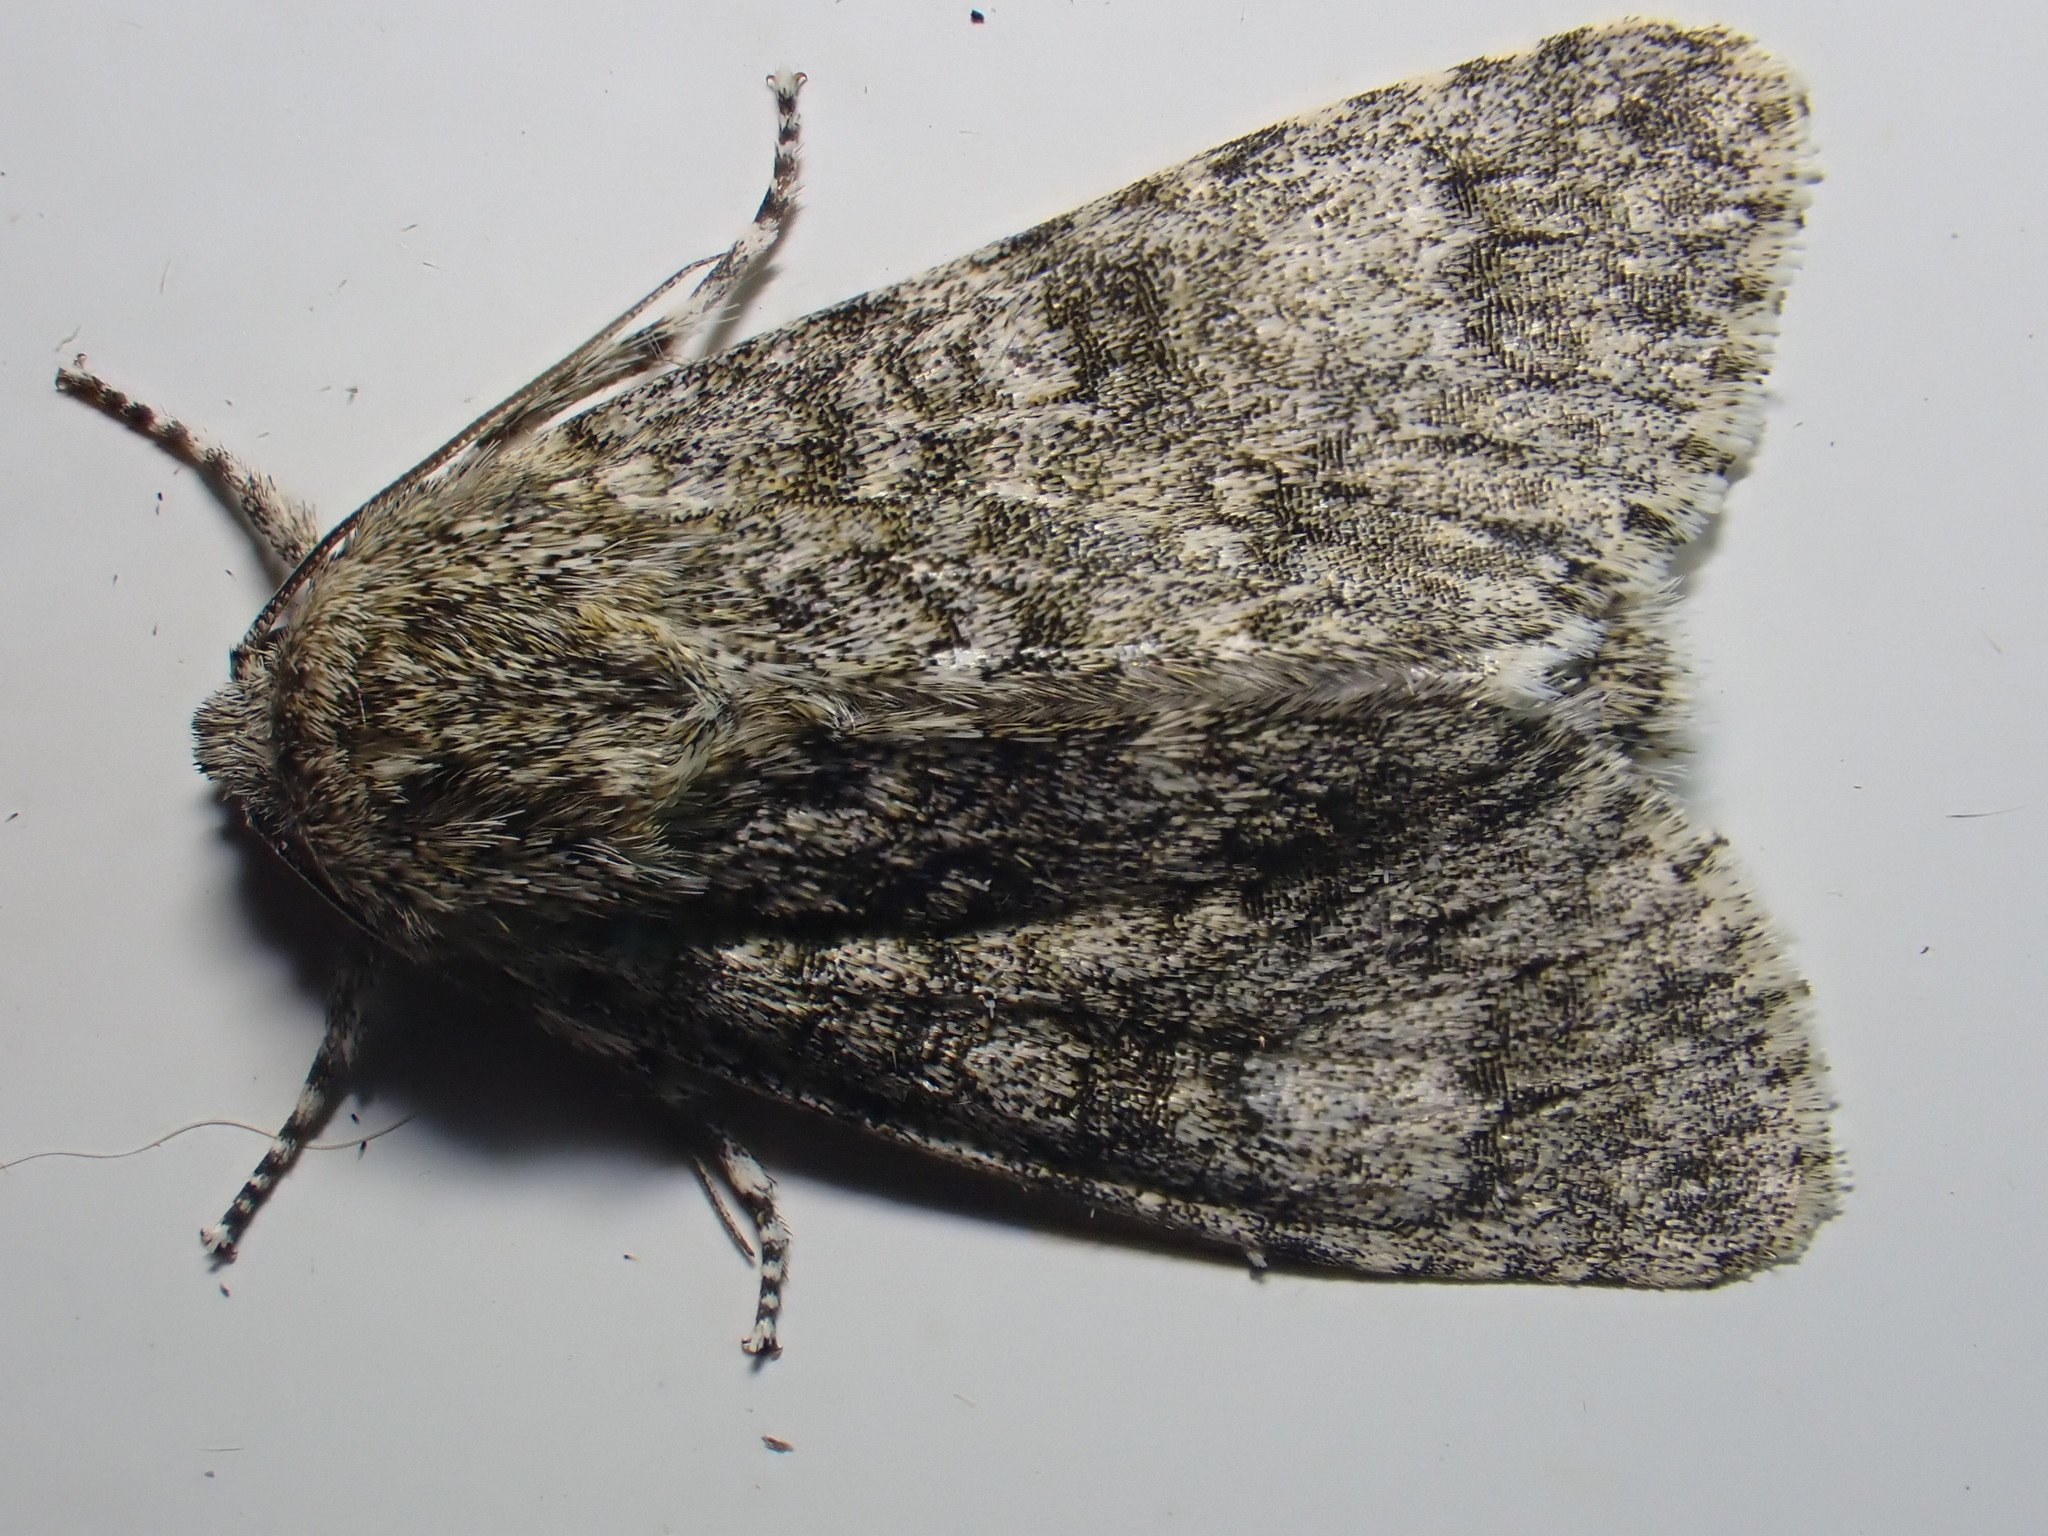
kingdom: Animalia
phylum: Arthropoda
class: Insecta
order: Lepidoptera
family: Noctuidae
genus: Acronicta
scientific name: Acronicta megacephala
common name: Poplar grey
